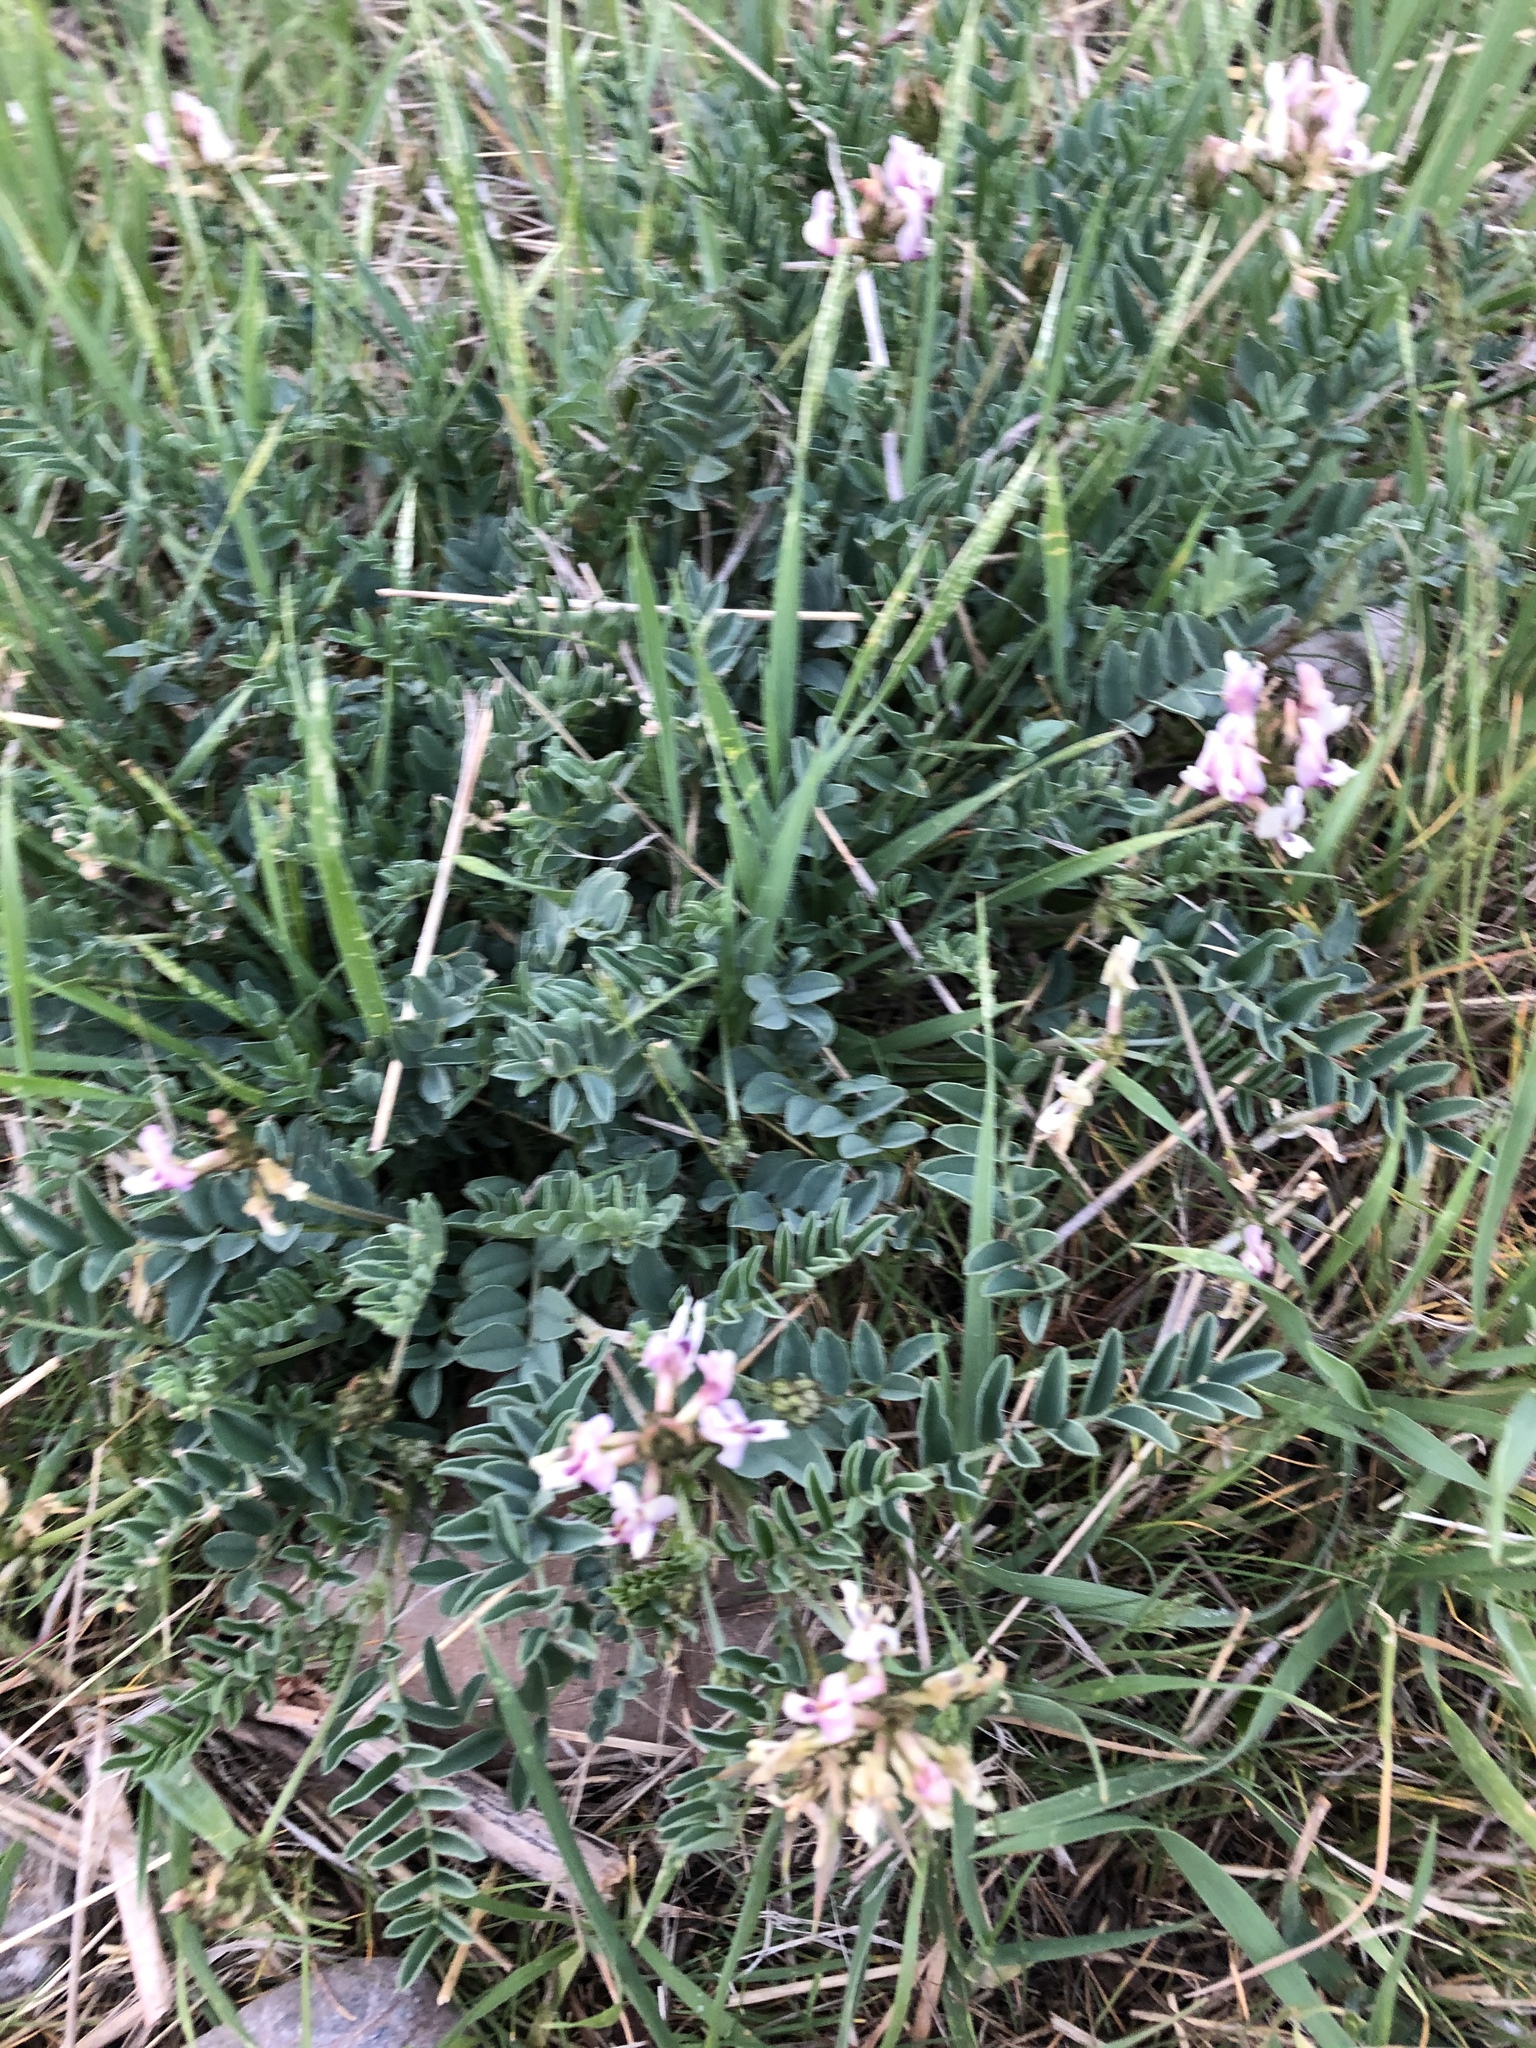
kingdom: Plantae
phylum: Tracheophyta
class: Magnoliopsida
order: Fabales
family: Fabaceae
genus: Astragalus
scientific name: Astragalus cibarius
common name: Browse milk-vetch
